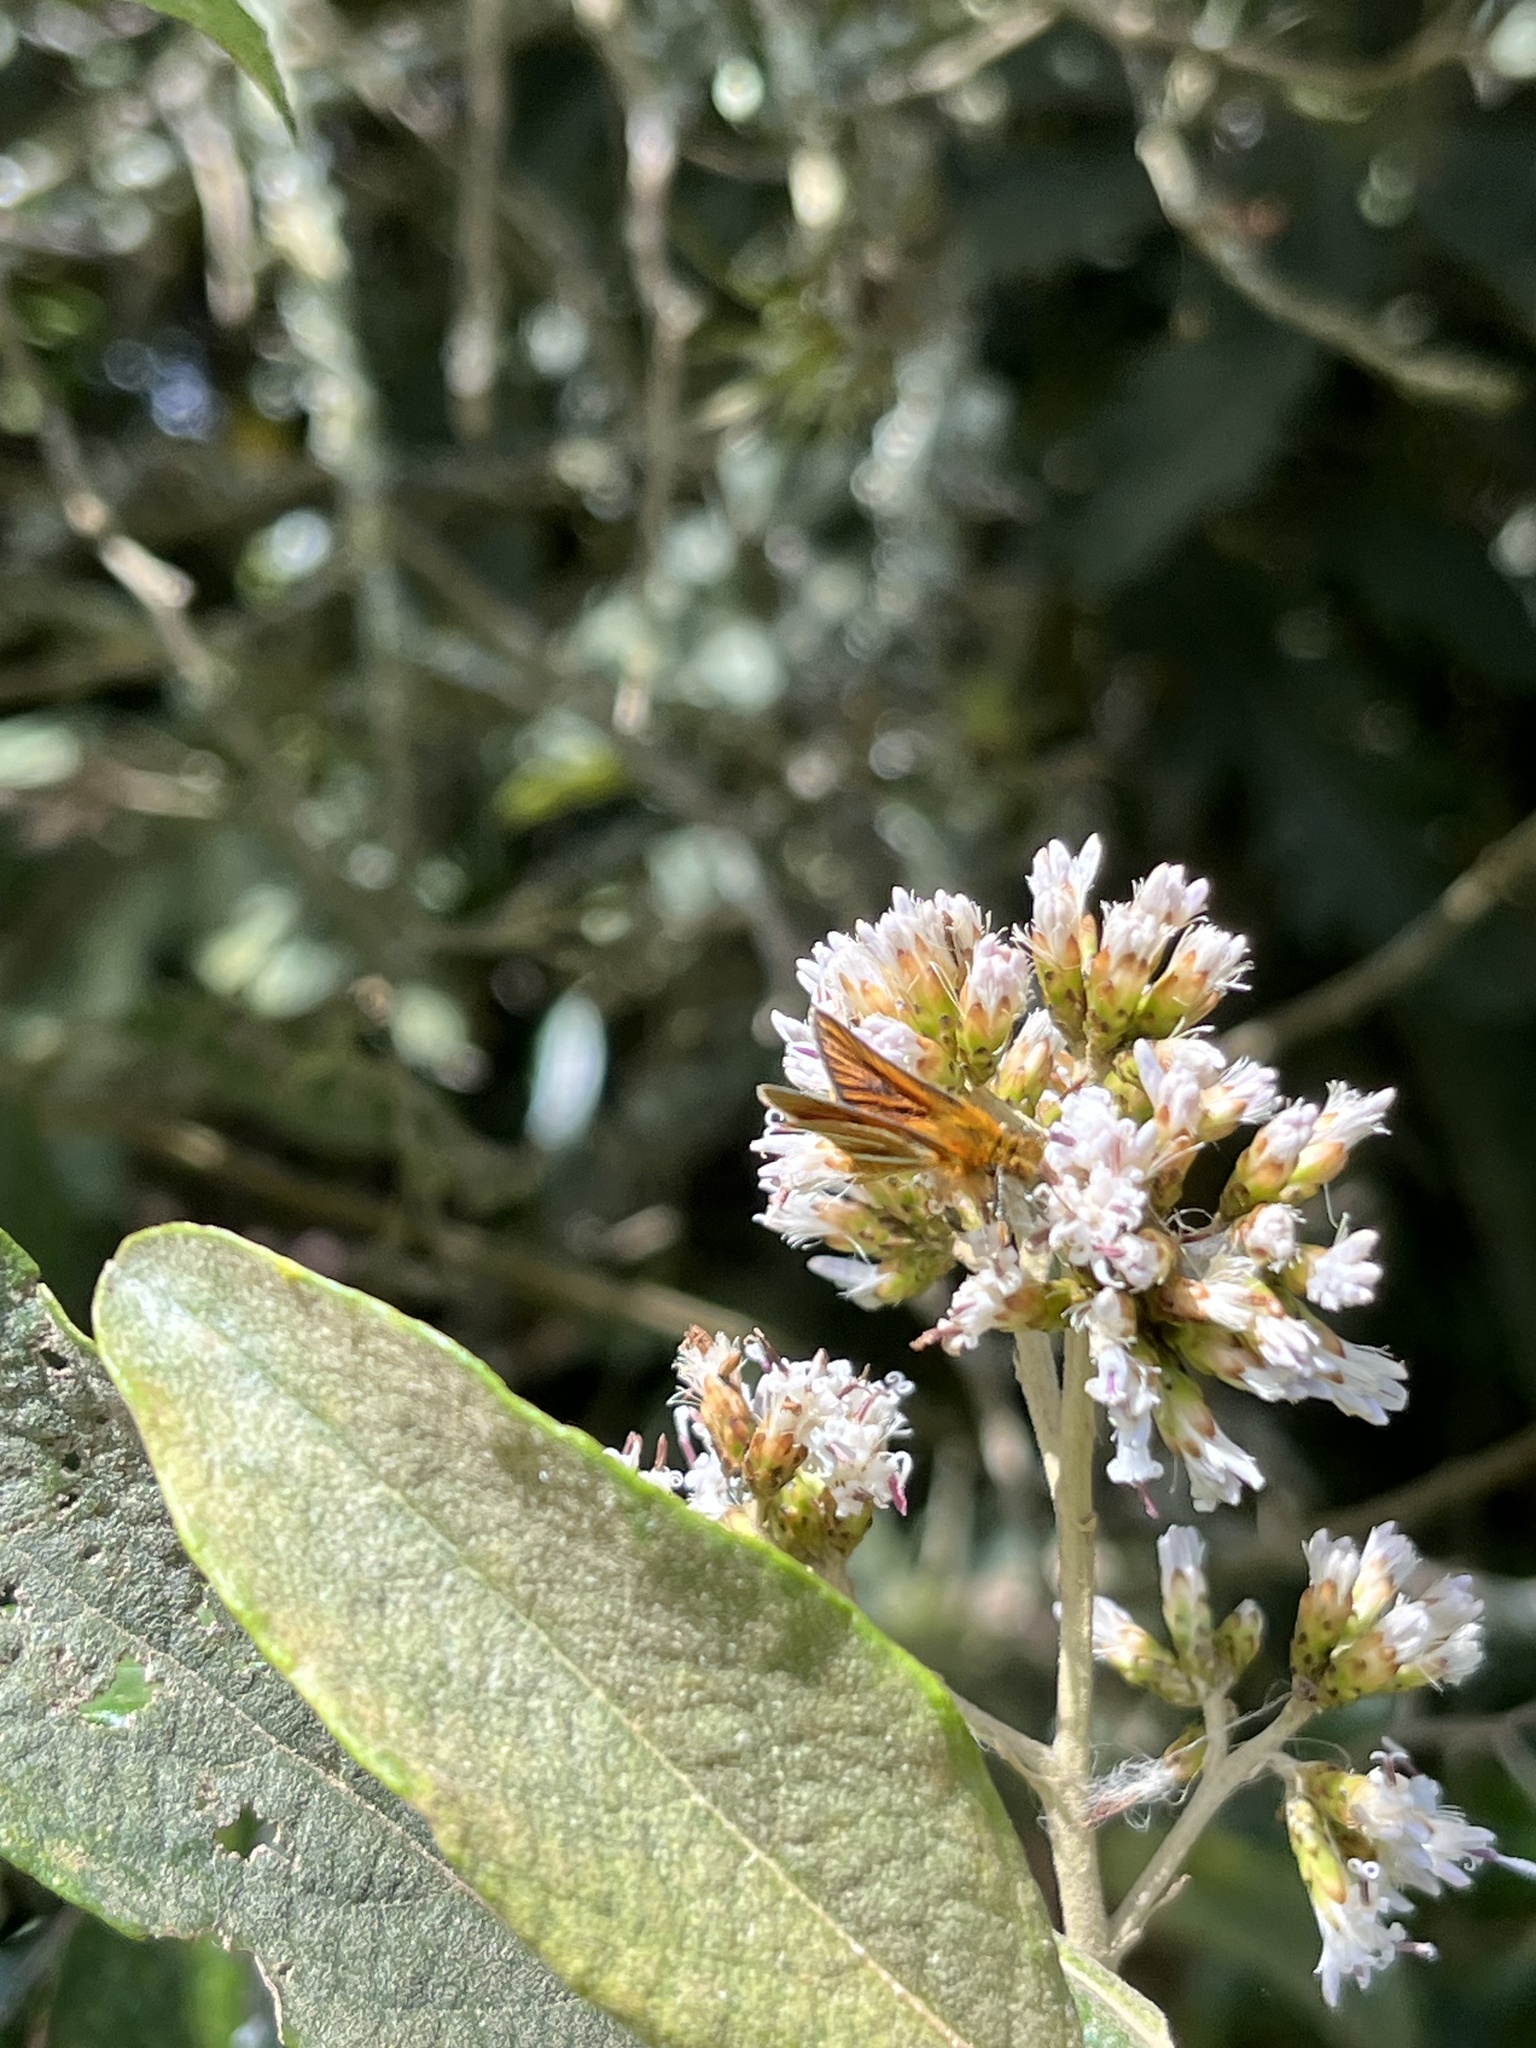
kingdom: Animalia
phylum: Arthropoda
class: Insecta
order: Lepidoptera
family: Hesperiidae
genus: Ancyloxypha
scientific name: Ancyloxypha melanoneura
